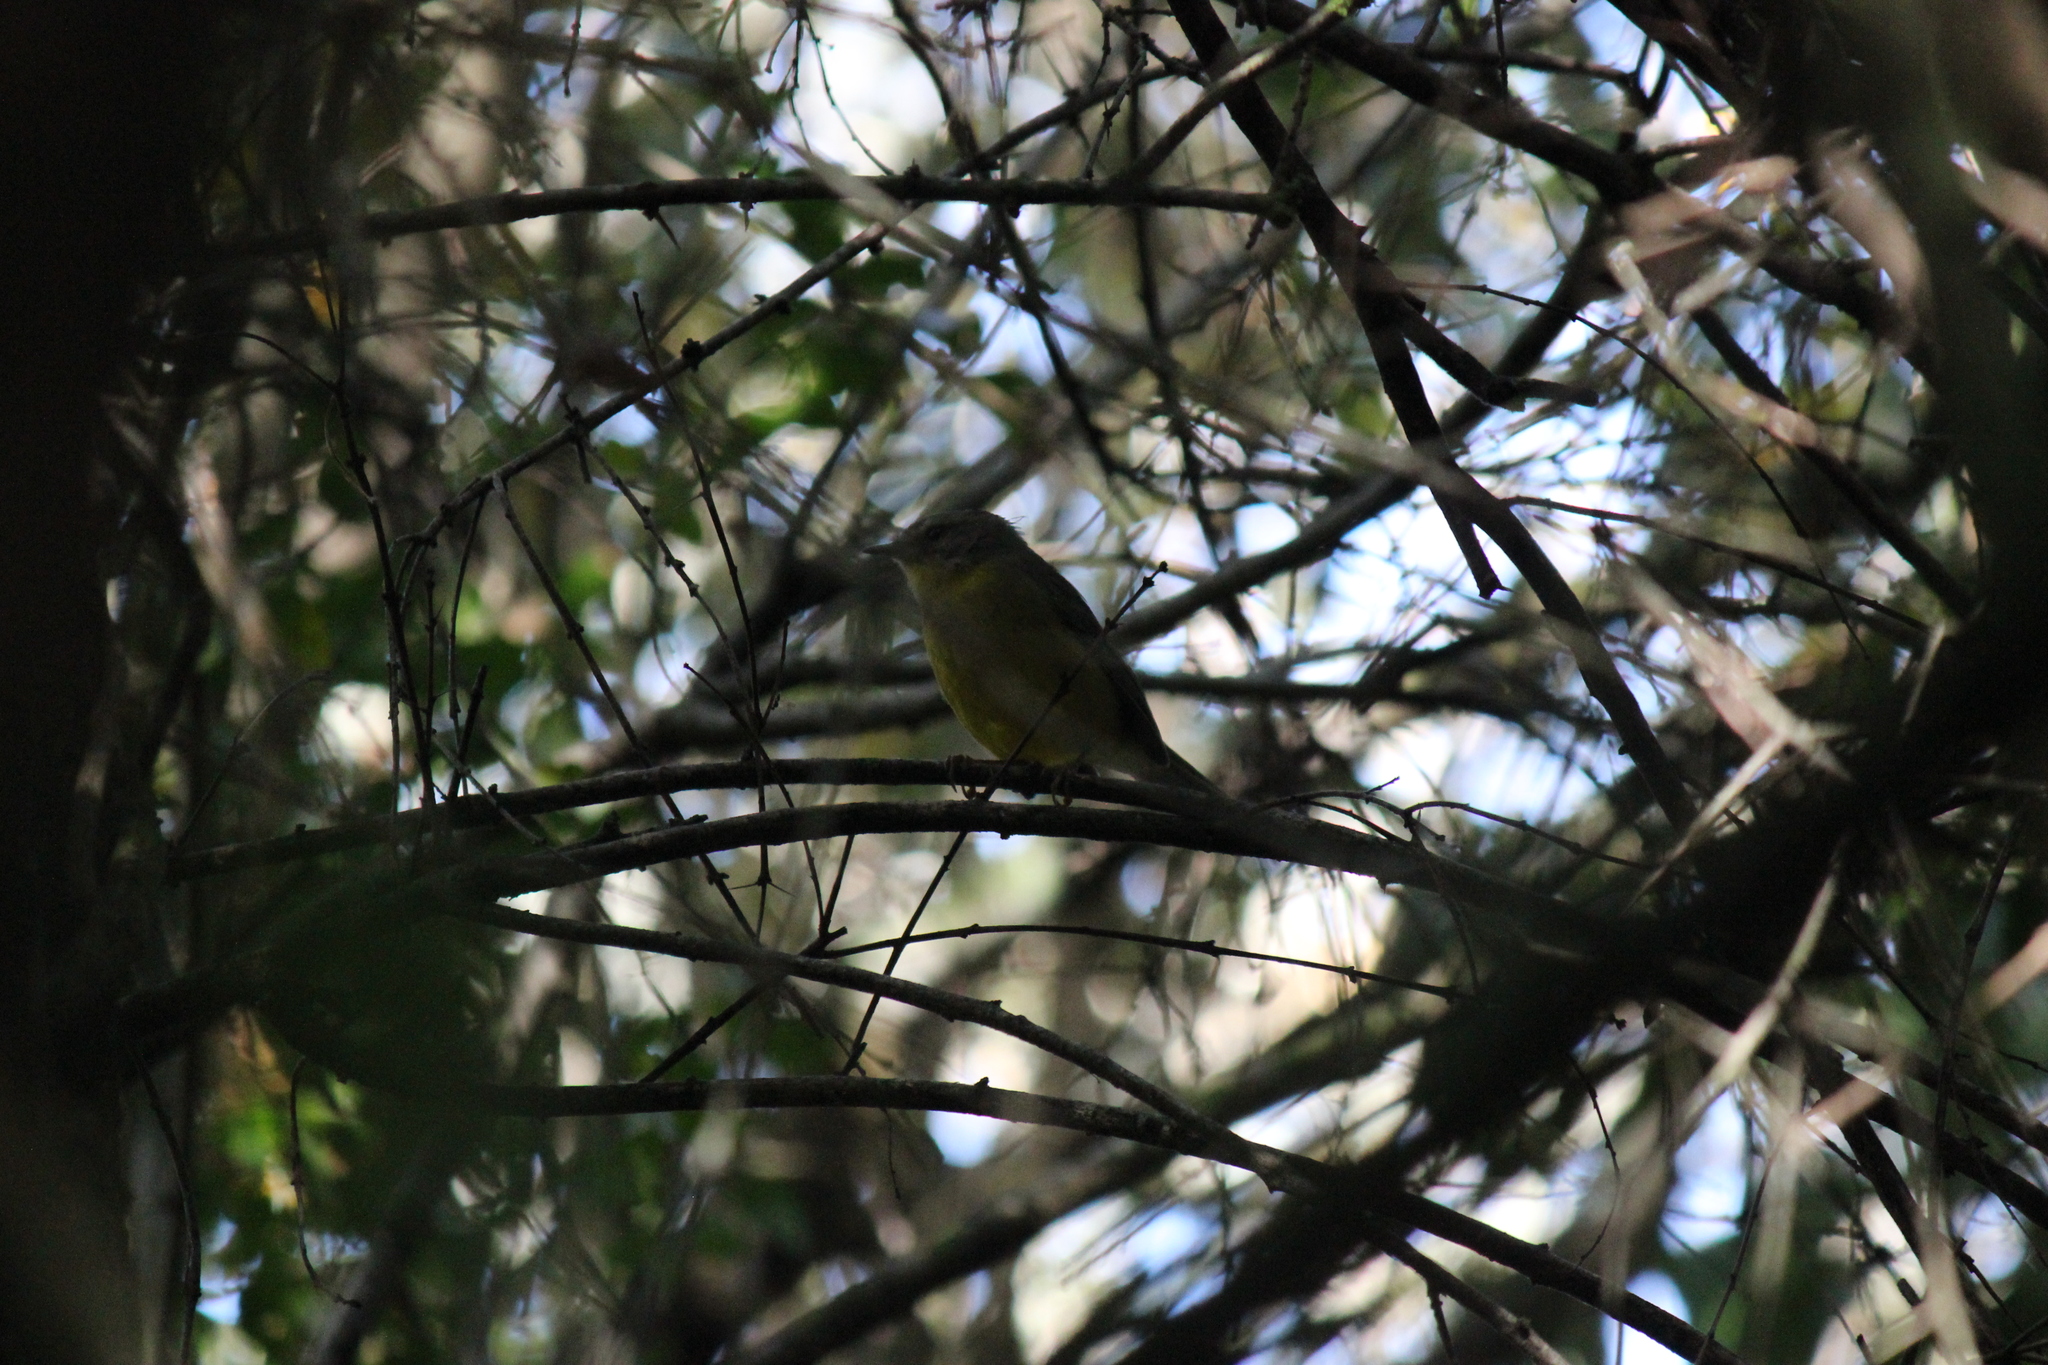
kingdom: Animalia
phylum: Chordata
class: Aves
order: Passeriformes
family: Parulidae
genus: Basileuterus
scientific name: Basileuterus culicivorus
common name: Golden-crowned warbler
